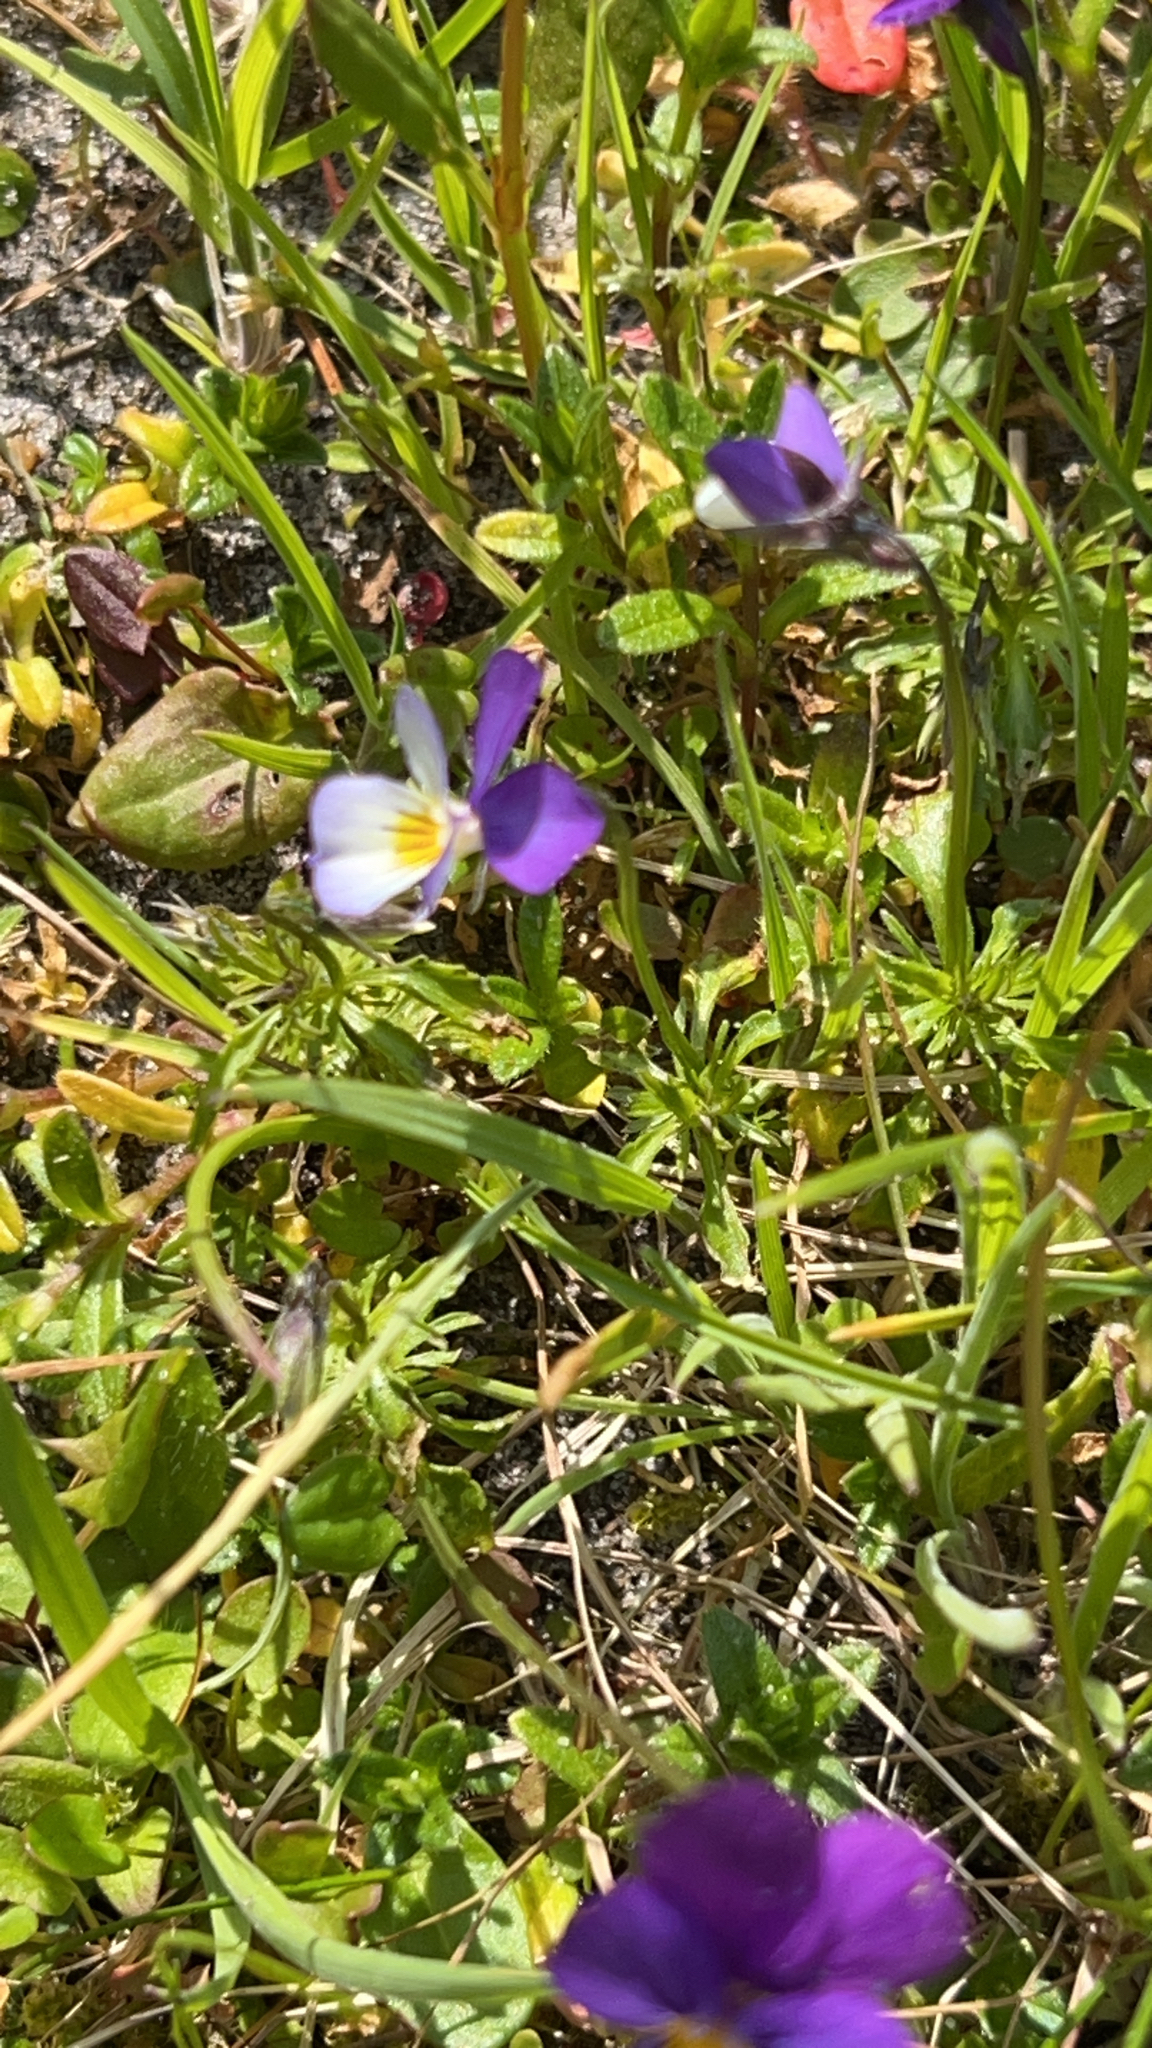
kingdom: Plantae
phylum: Tracheophyta
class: Magnoliopsida
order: Malpighiales
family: Violaceae
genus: Viola
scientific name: Viola tricolor
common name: Pansy
